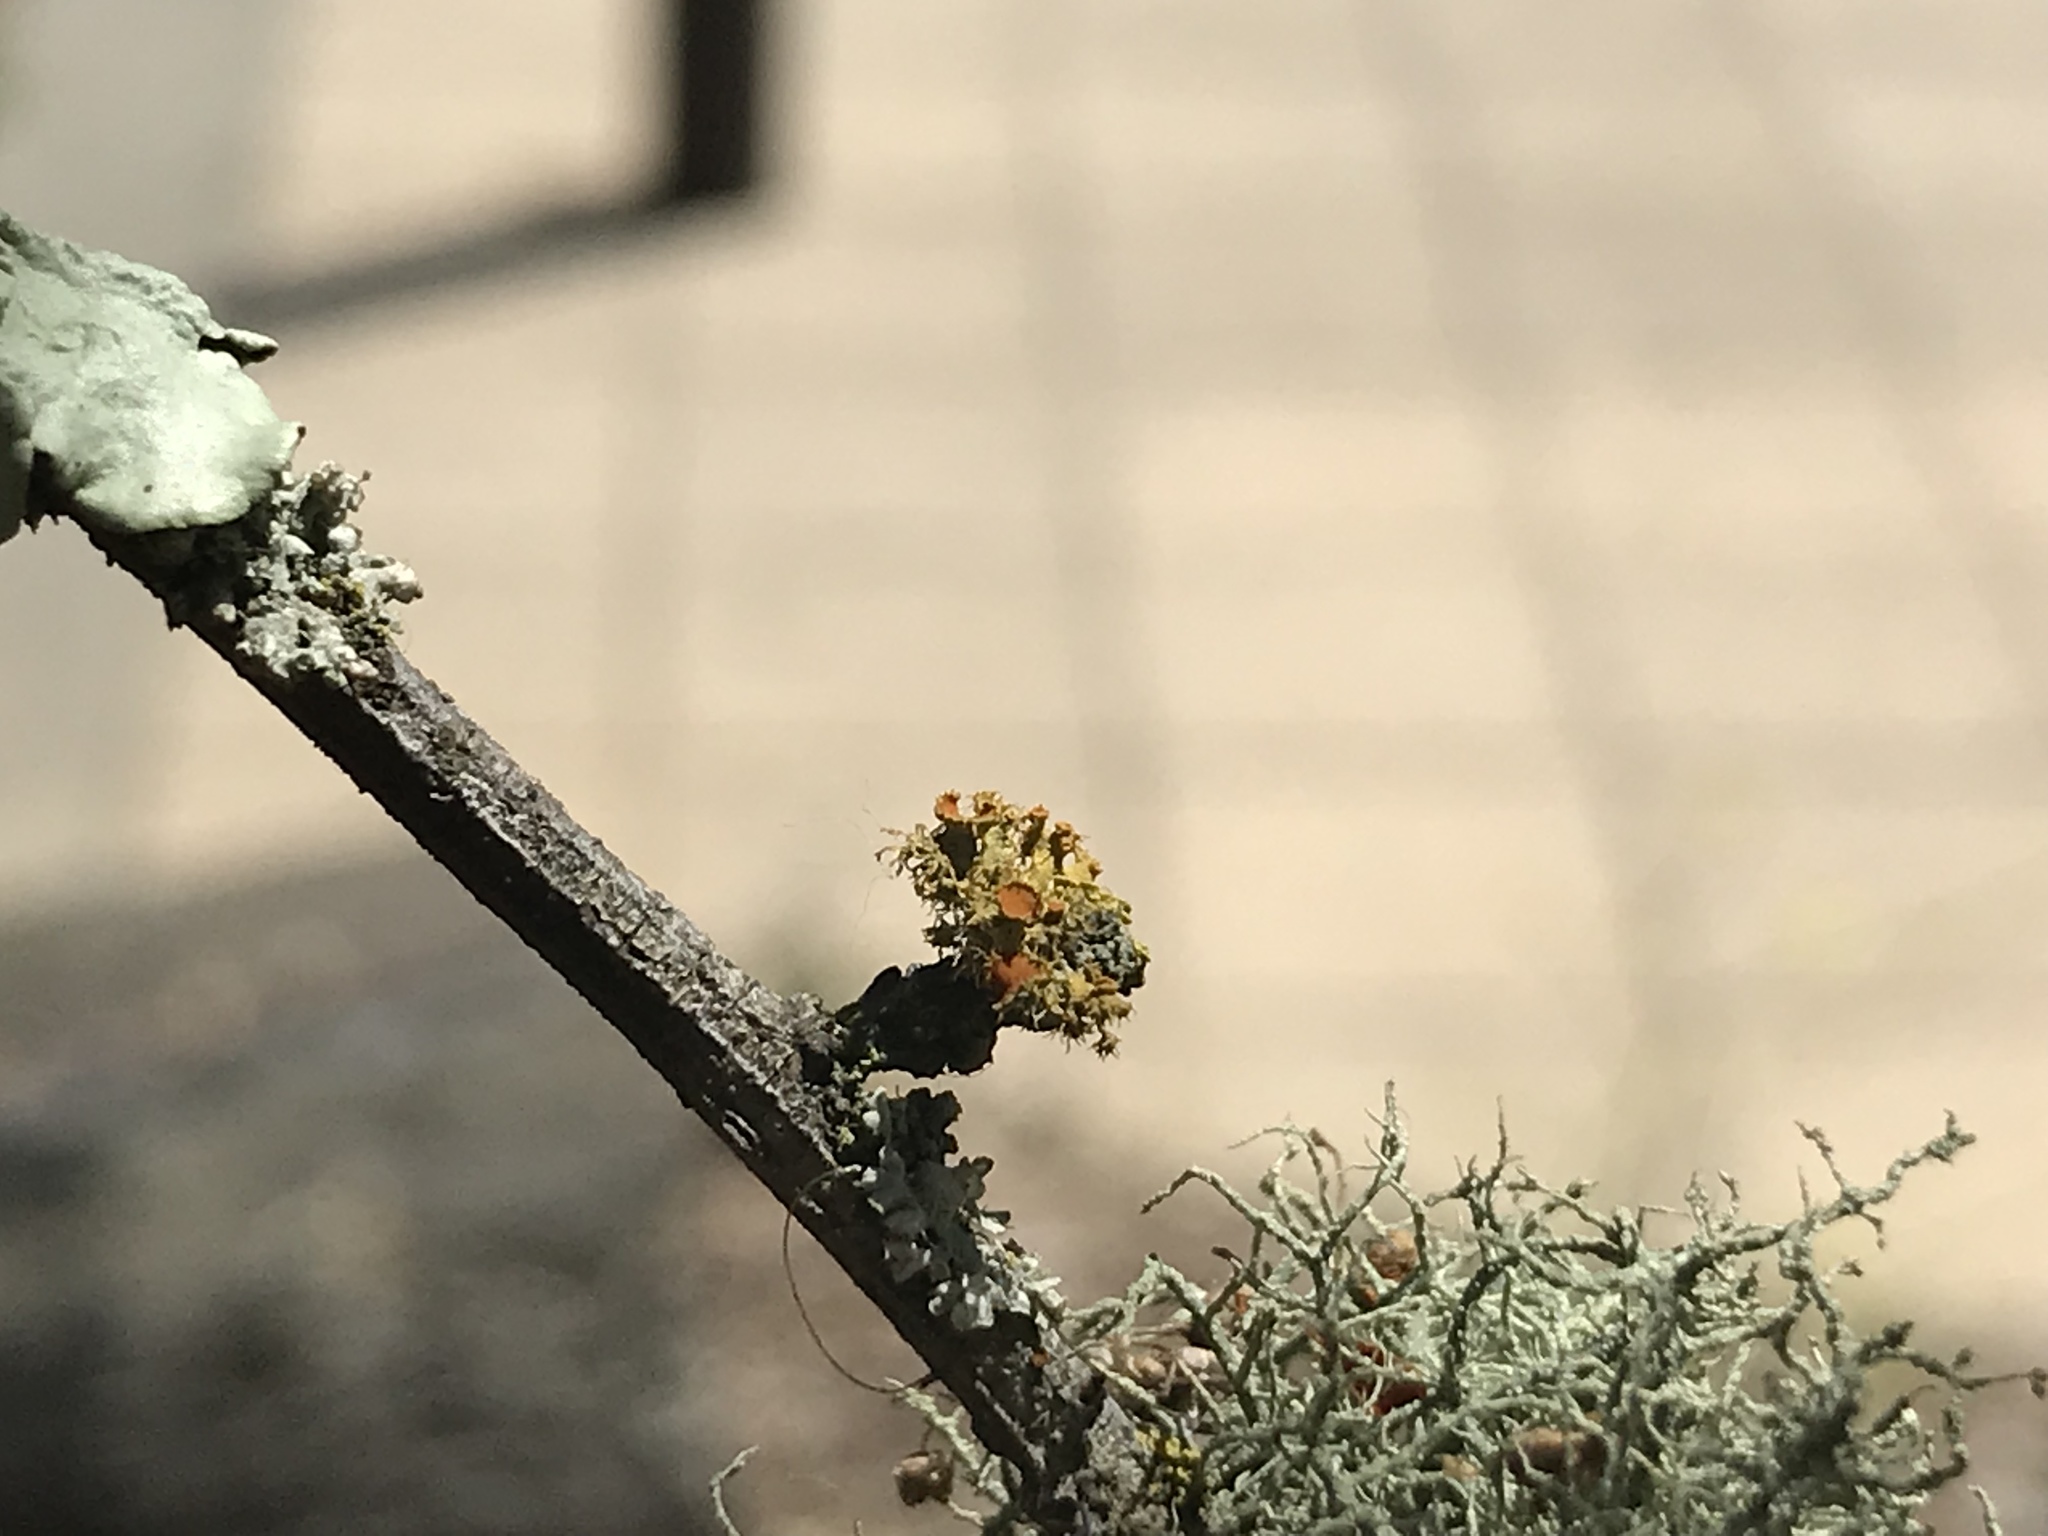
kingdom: Fungi
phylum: Ascomycota
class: Lecanoromycetes
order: Teloschistales
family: Teloschistaceae
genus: Niorma
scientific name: Niorma chrysophthalma
